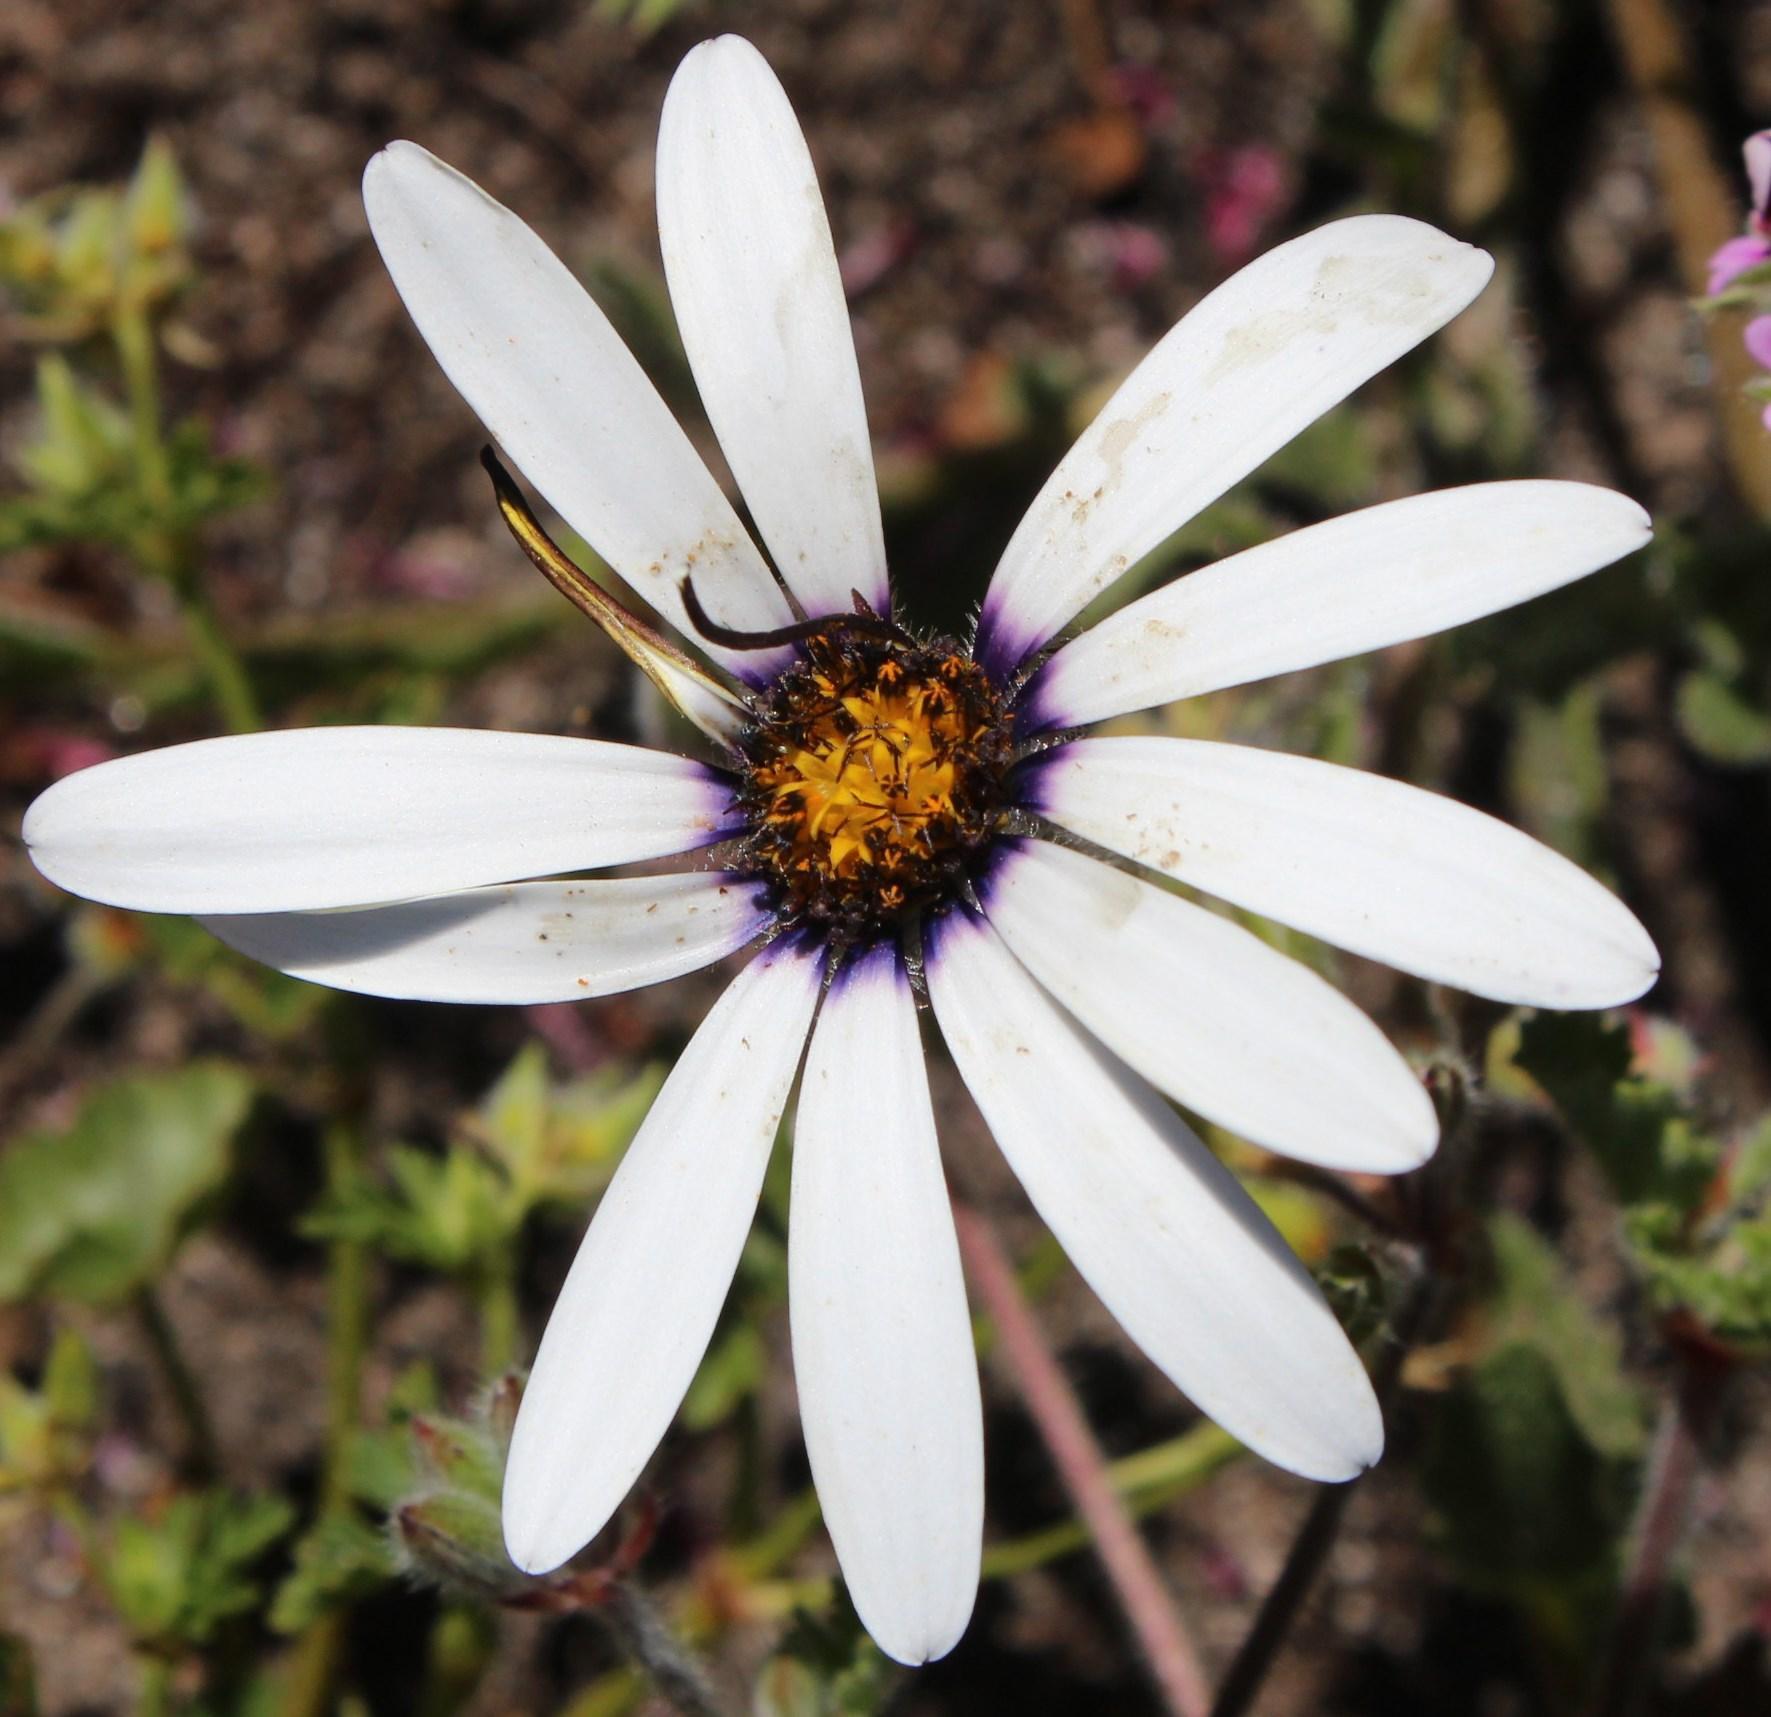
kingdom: Plantae
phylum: Tracheophyta
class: Magnoliopsida
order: Asterales
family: Asteraceae
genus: Dimorphotheca
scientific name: Dimorphotheca pluvialis
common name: Weather prophet
